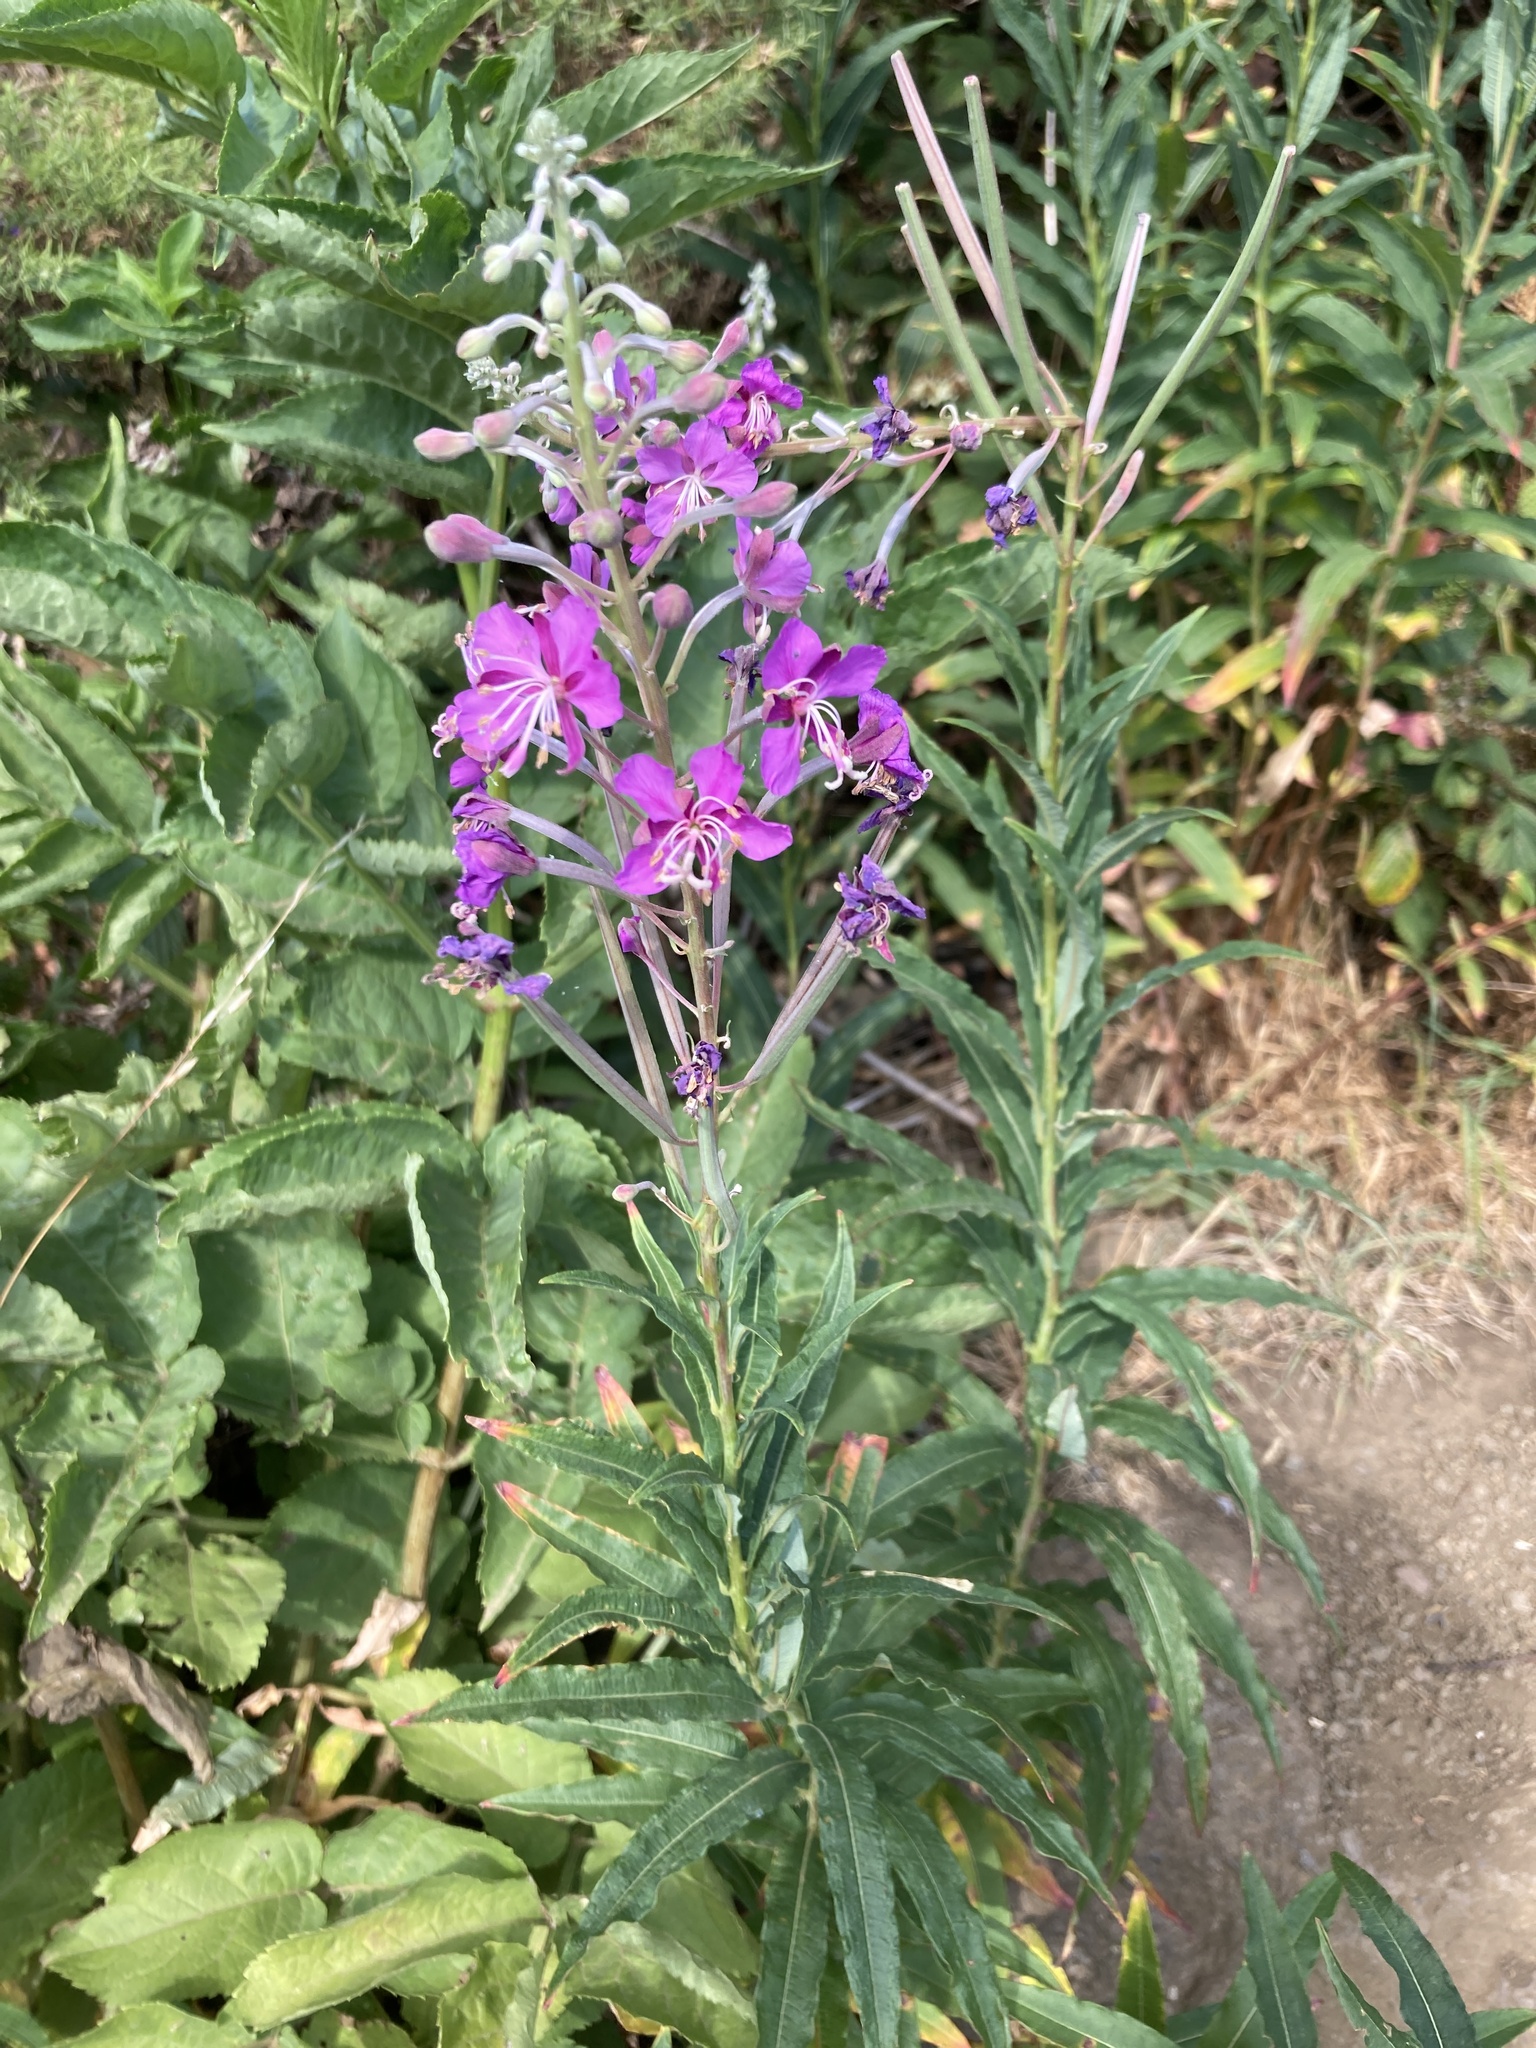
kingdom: Plantae
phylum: Tracheophyta
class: Magnoliopsida
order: Myrtales
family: Onagraceae
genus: Chamaenerion
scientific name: Chamaenerion angustifolium
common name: Fireweed
